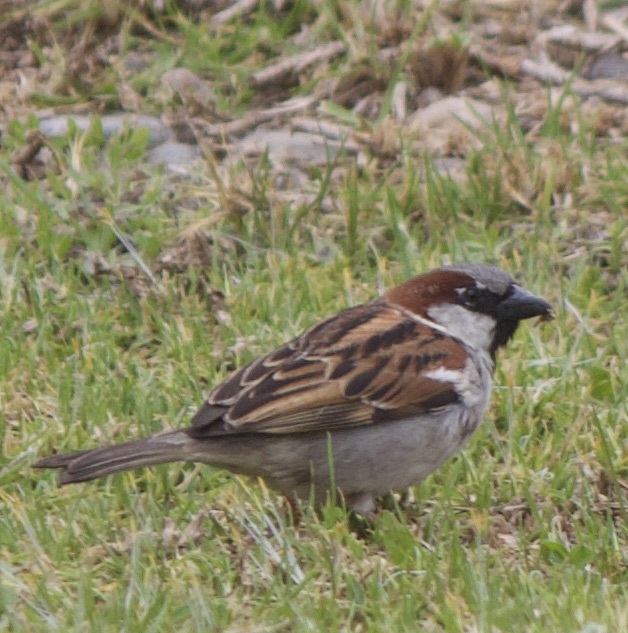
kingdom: Animalia
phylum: Chordata
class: Aves
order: Passeriformes
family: Passeridae
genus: Passer
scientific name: Passer domesticus
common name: House sparrow
